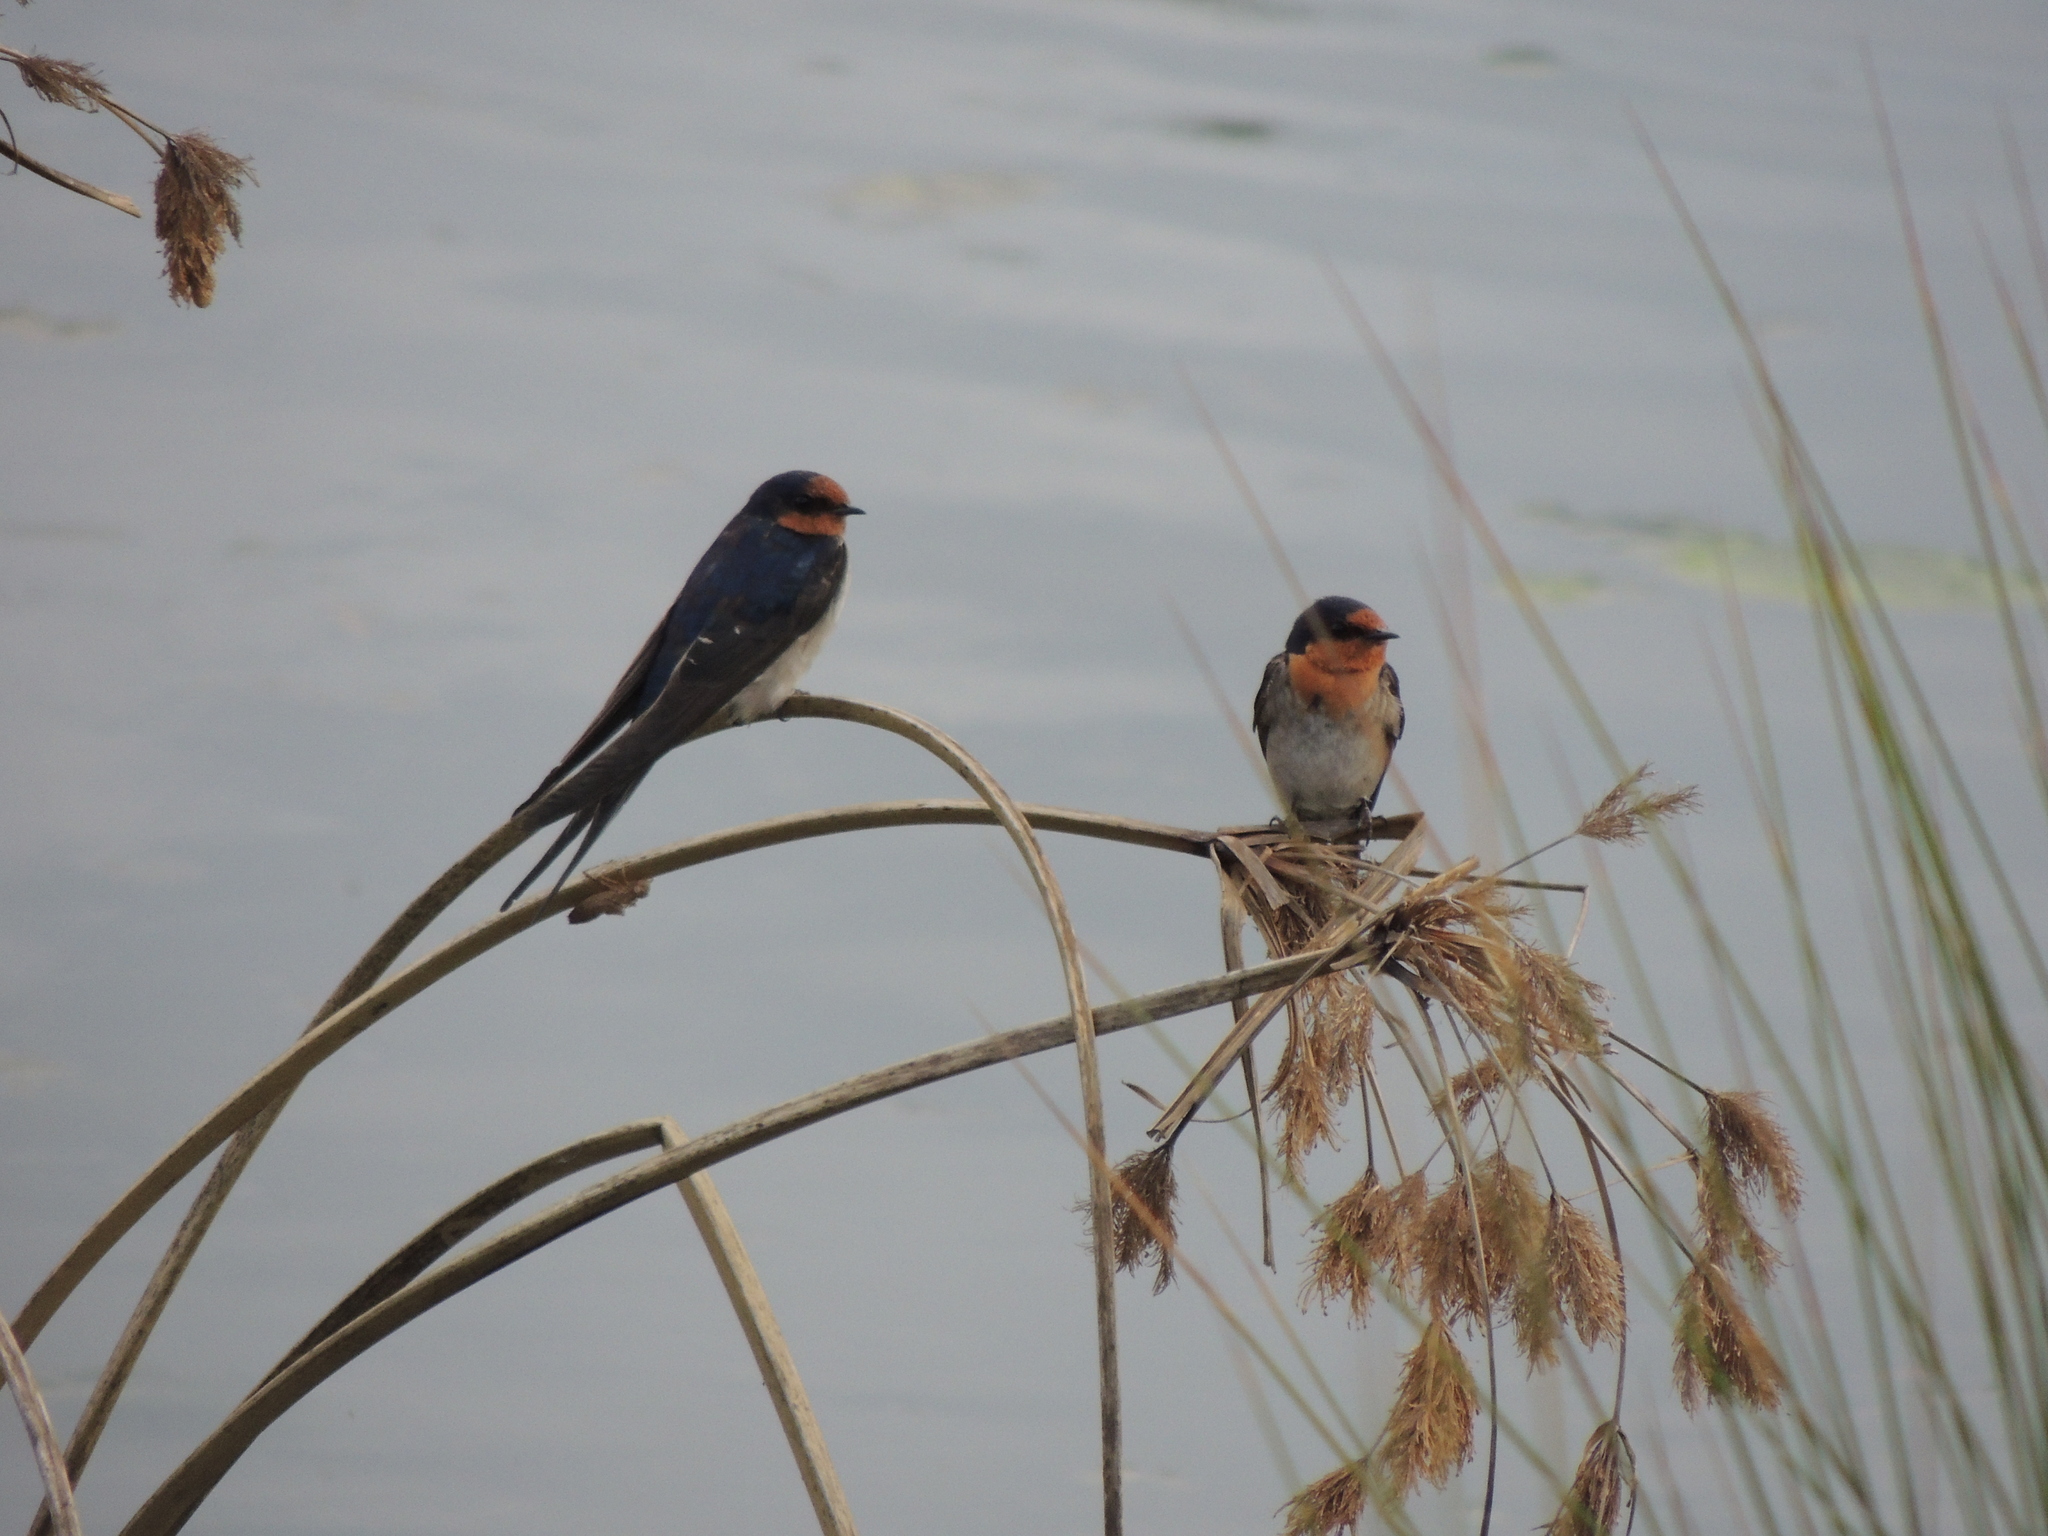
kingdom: Animalia
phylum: Chordata
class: Aves
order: Passeriformes
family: Hirundinidae
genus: Hirundo
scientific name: Hirundo neoxena
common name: Welcome swallow
